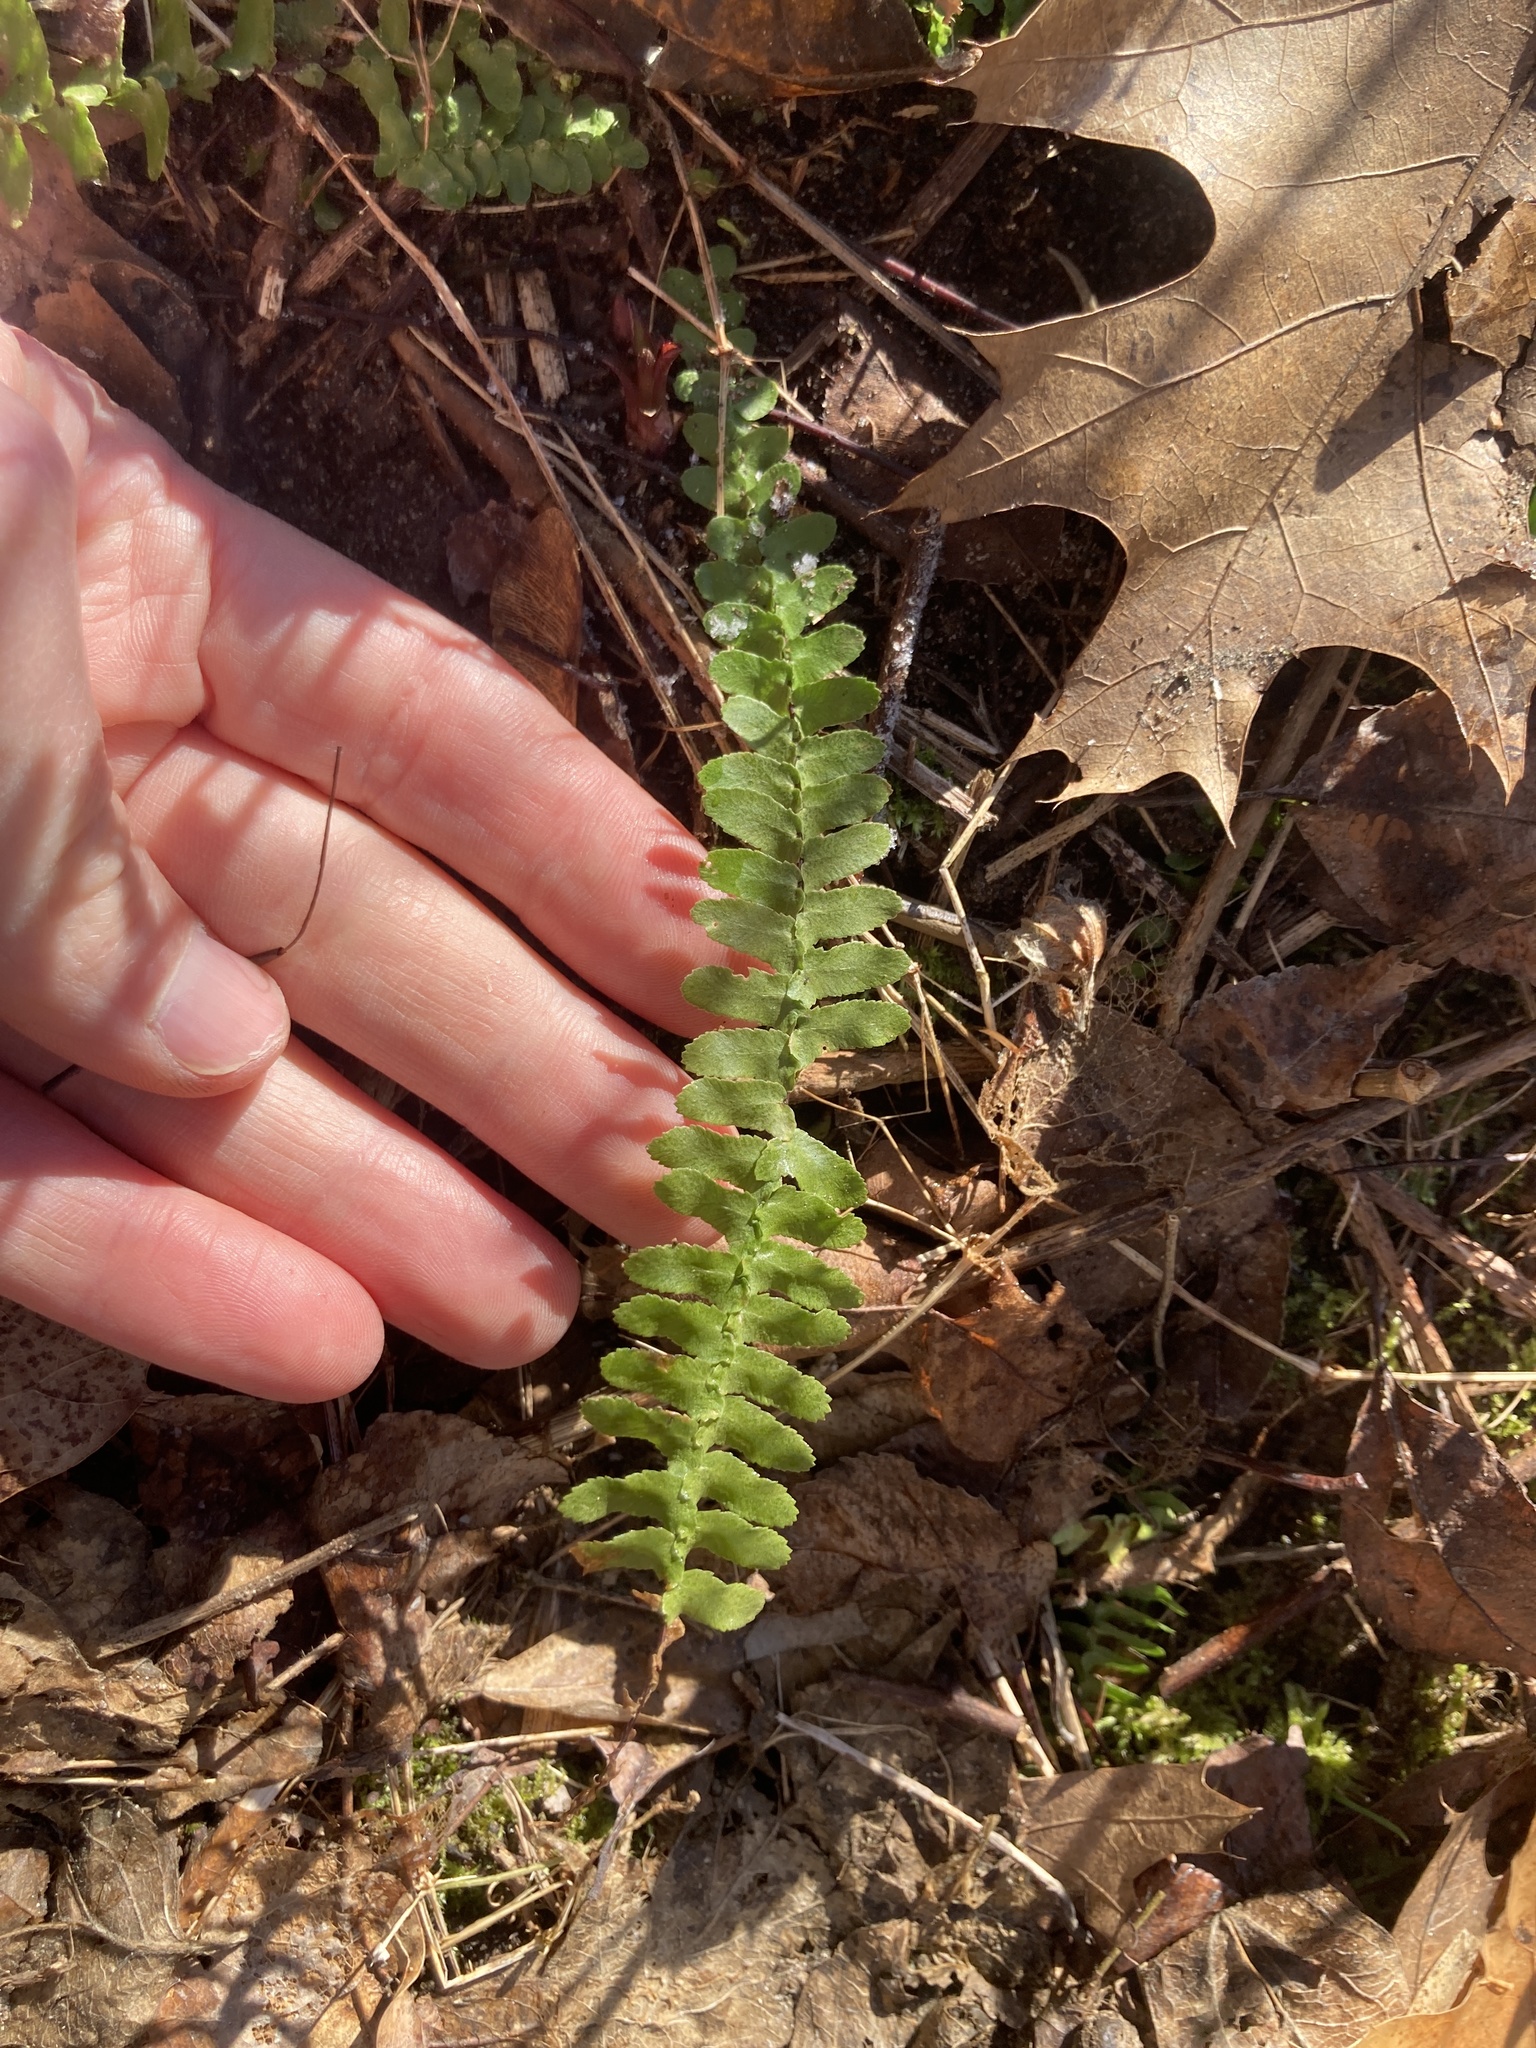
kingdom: Plantae
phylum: Tracheophyta
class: Polypodiopsida
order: Polypodiales
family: Aspleniaceae
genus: Asplenium
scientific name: Asplenium platyneuron
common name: Ebony spleenwort
